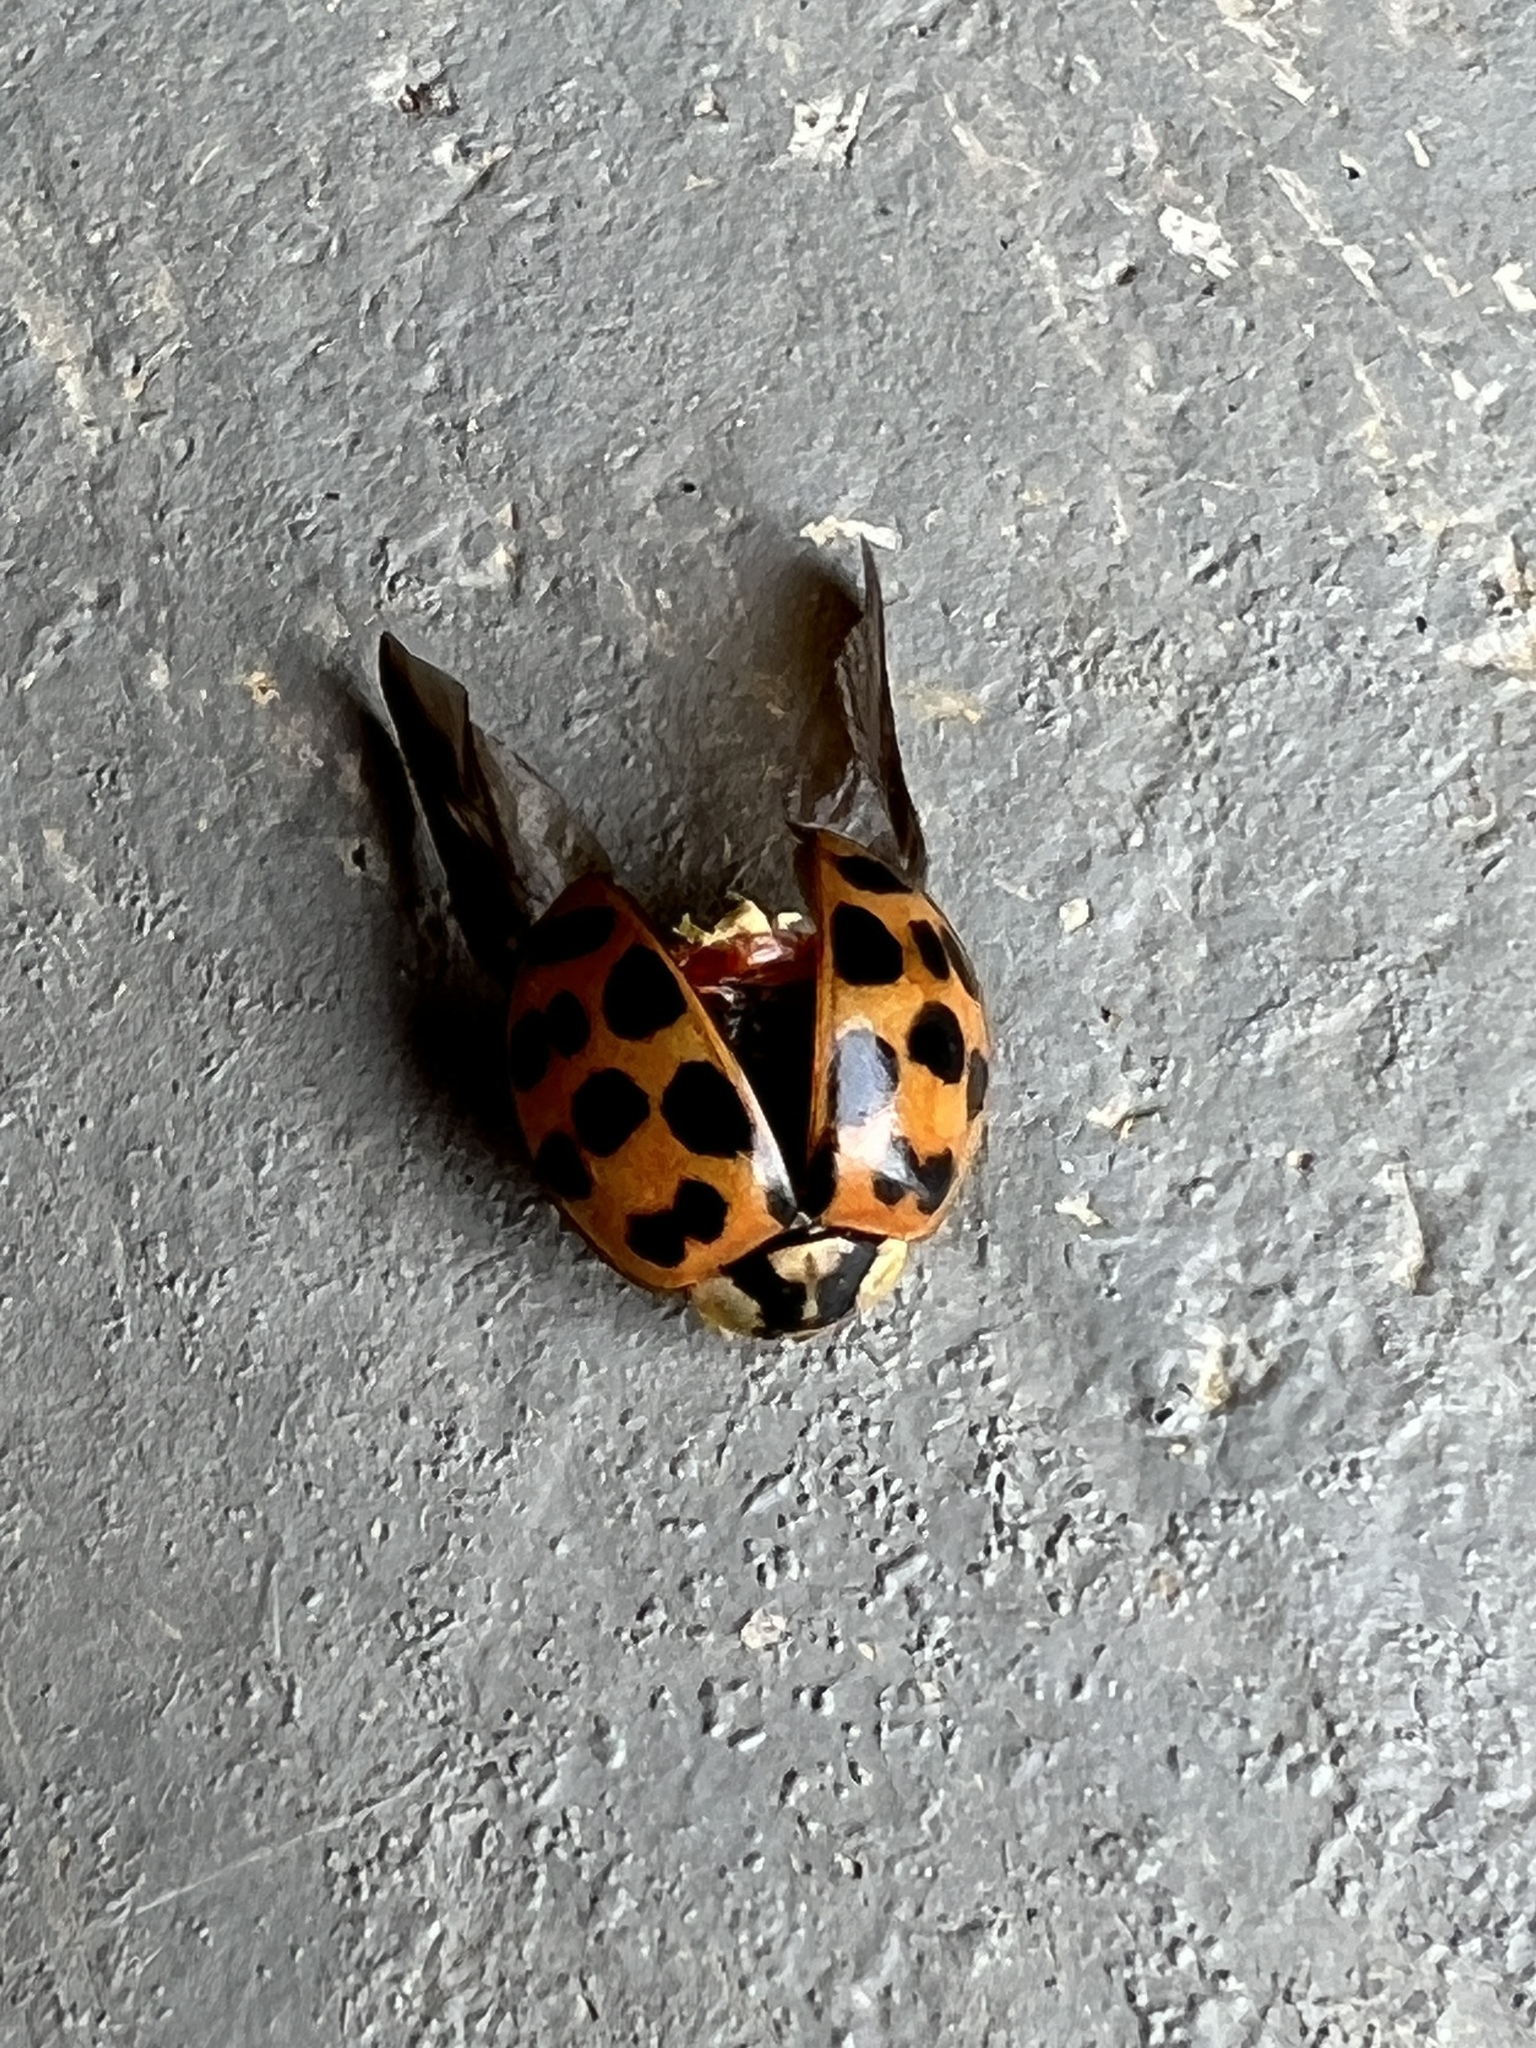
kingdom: Animalia
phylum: Arthropoda
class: Insecta
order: Coleoptera
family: Coccinellidae
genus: Harmonia
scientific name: Harmonia axyridis
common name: Harlequin ladybird
